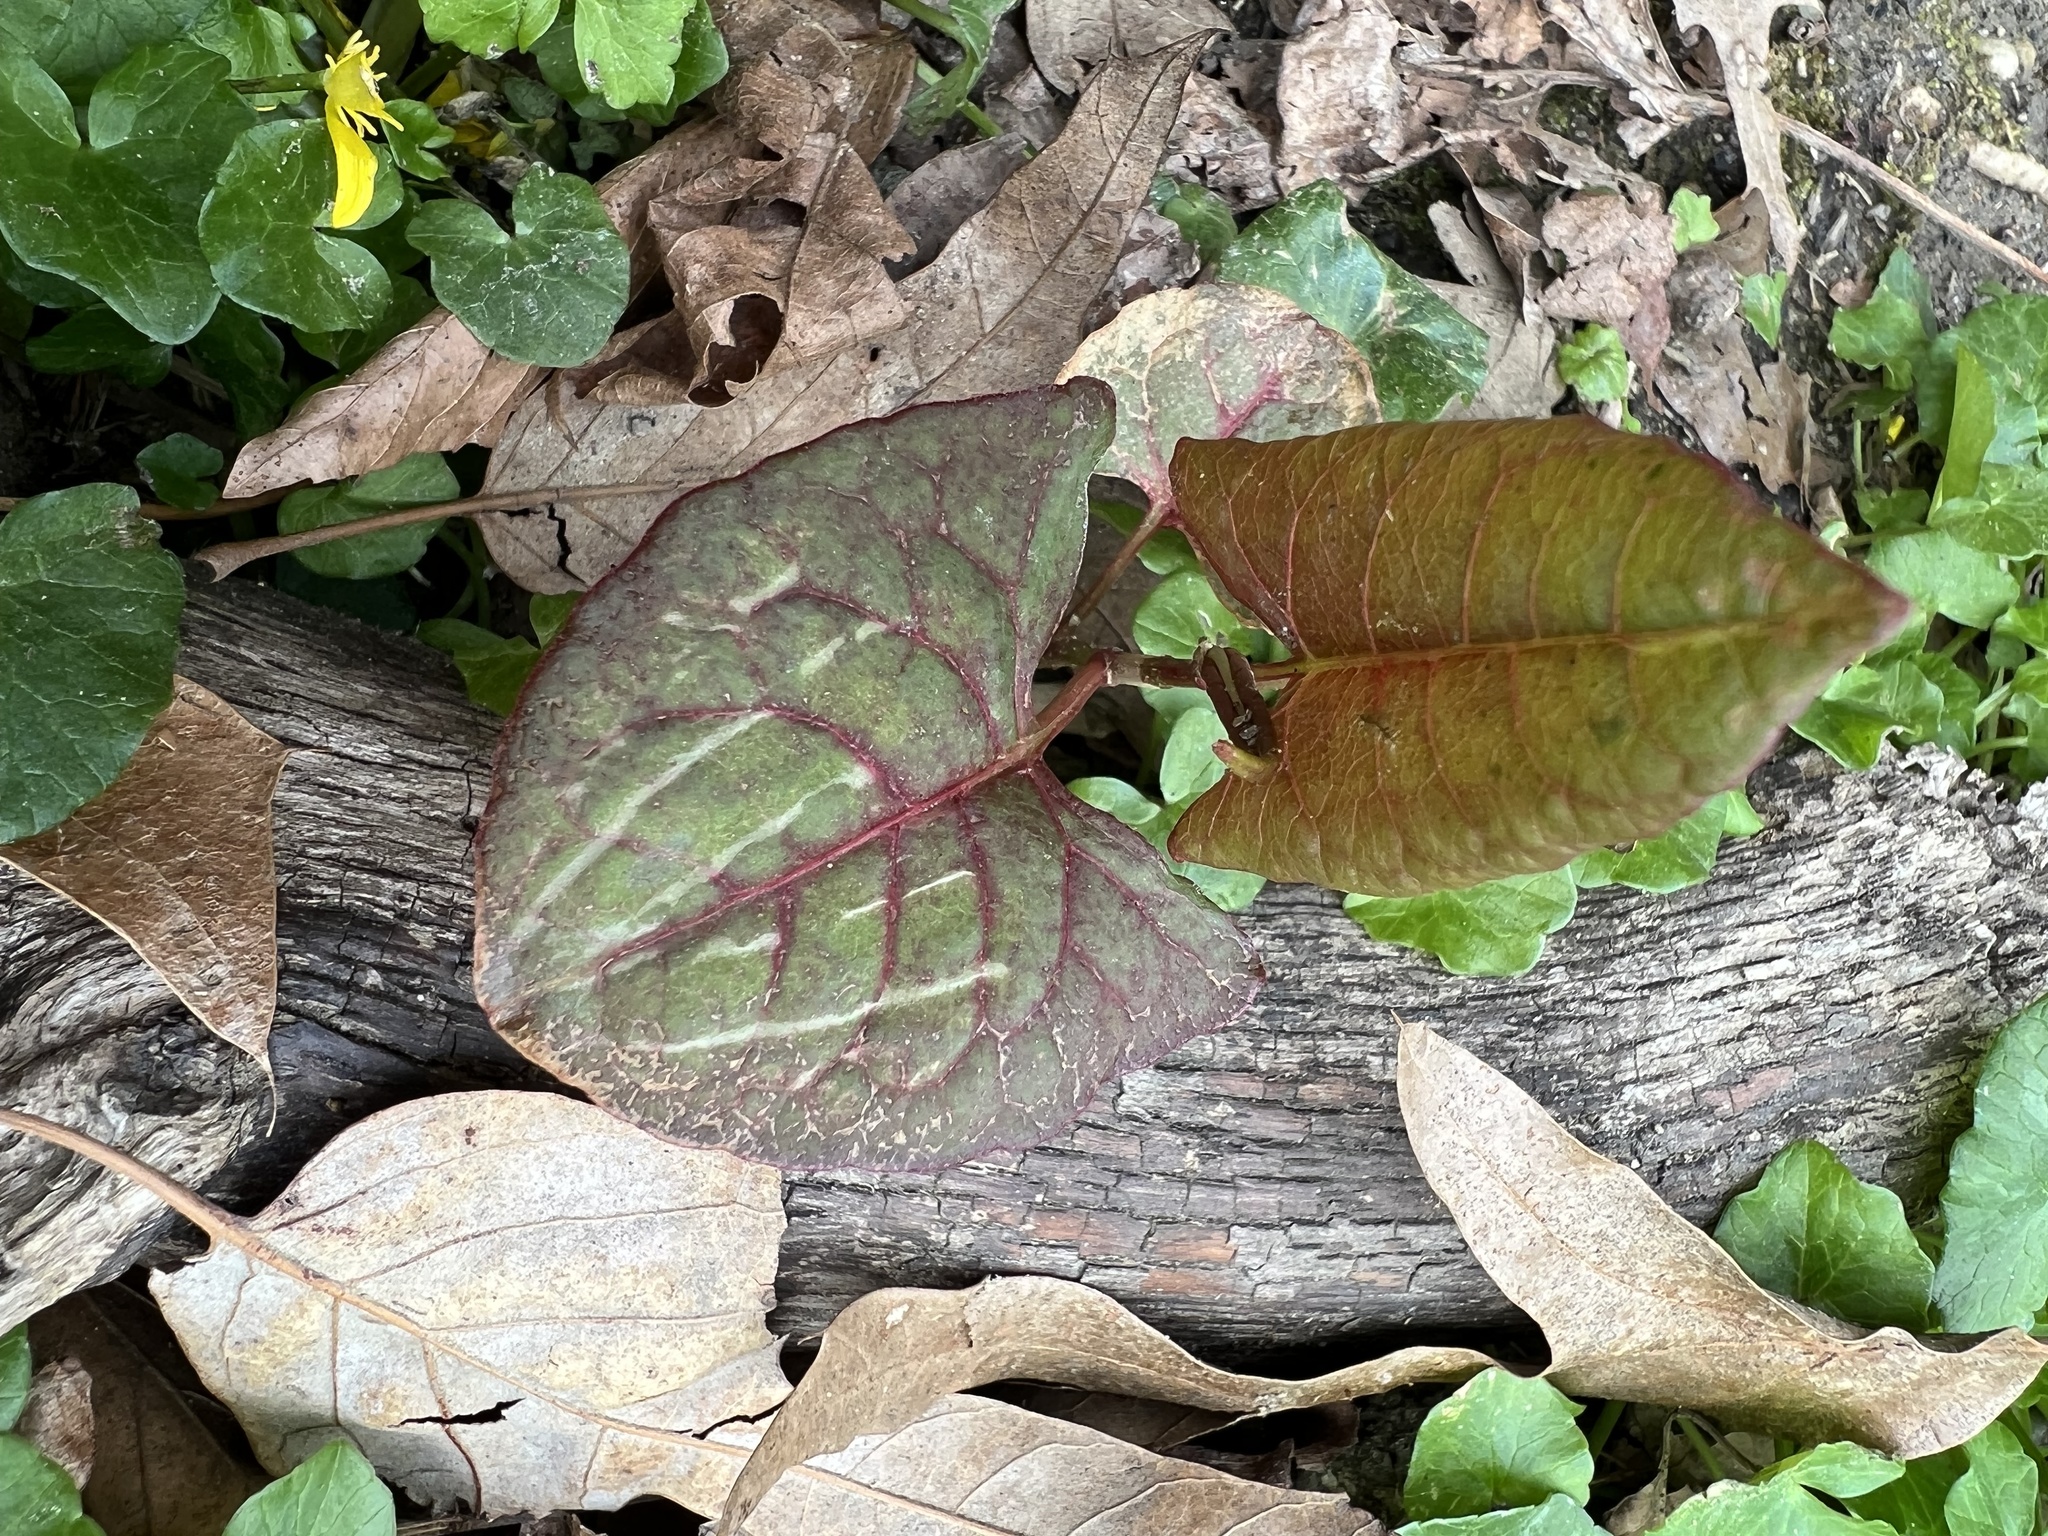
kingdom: Plantae
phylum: Tracheophyta
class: Magnoliopsida
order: Caryophyllales
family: Polygonaceae
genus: Reynoutria
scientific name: Reynoutria japonica
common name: Japanese knotweed
